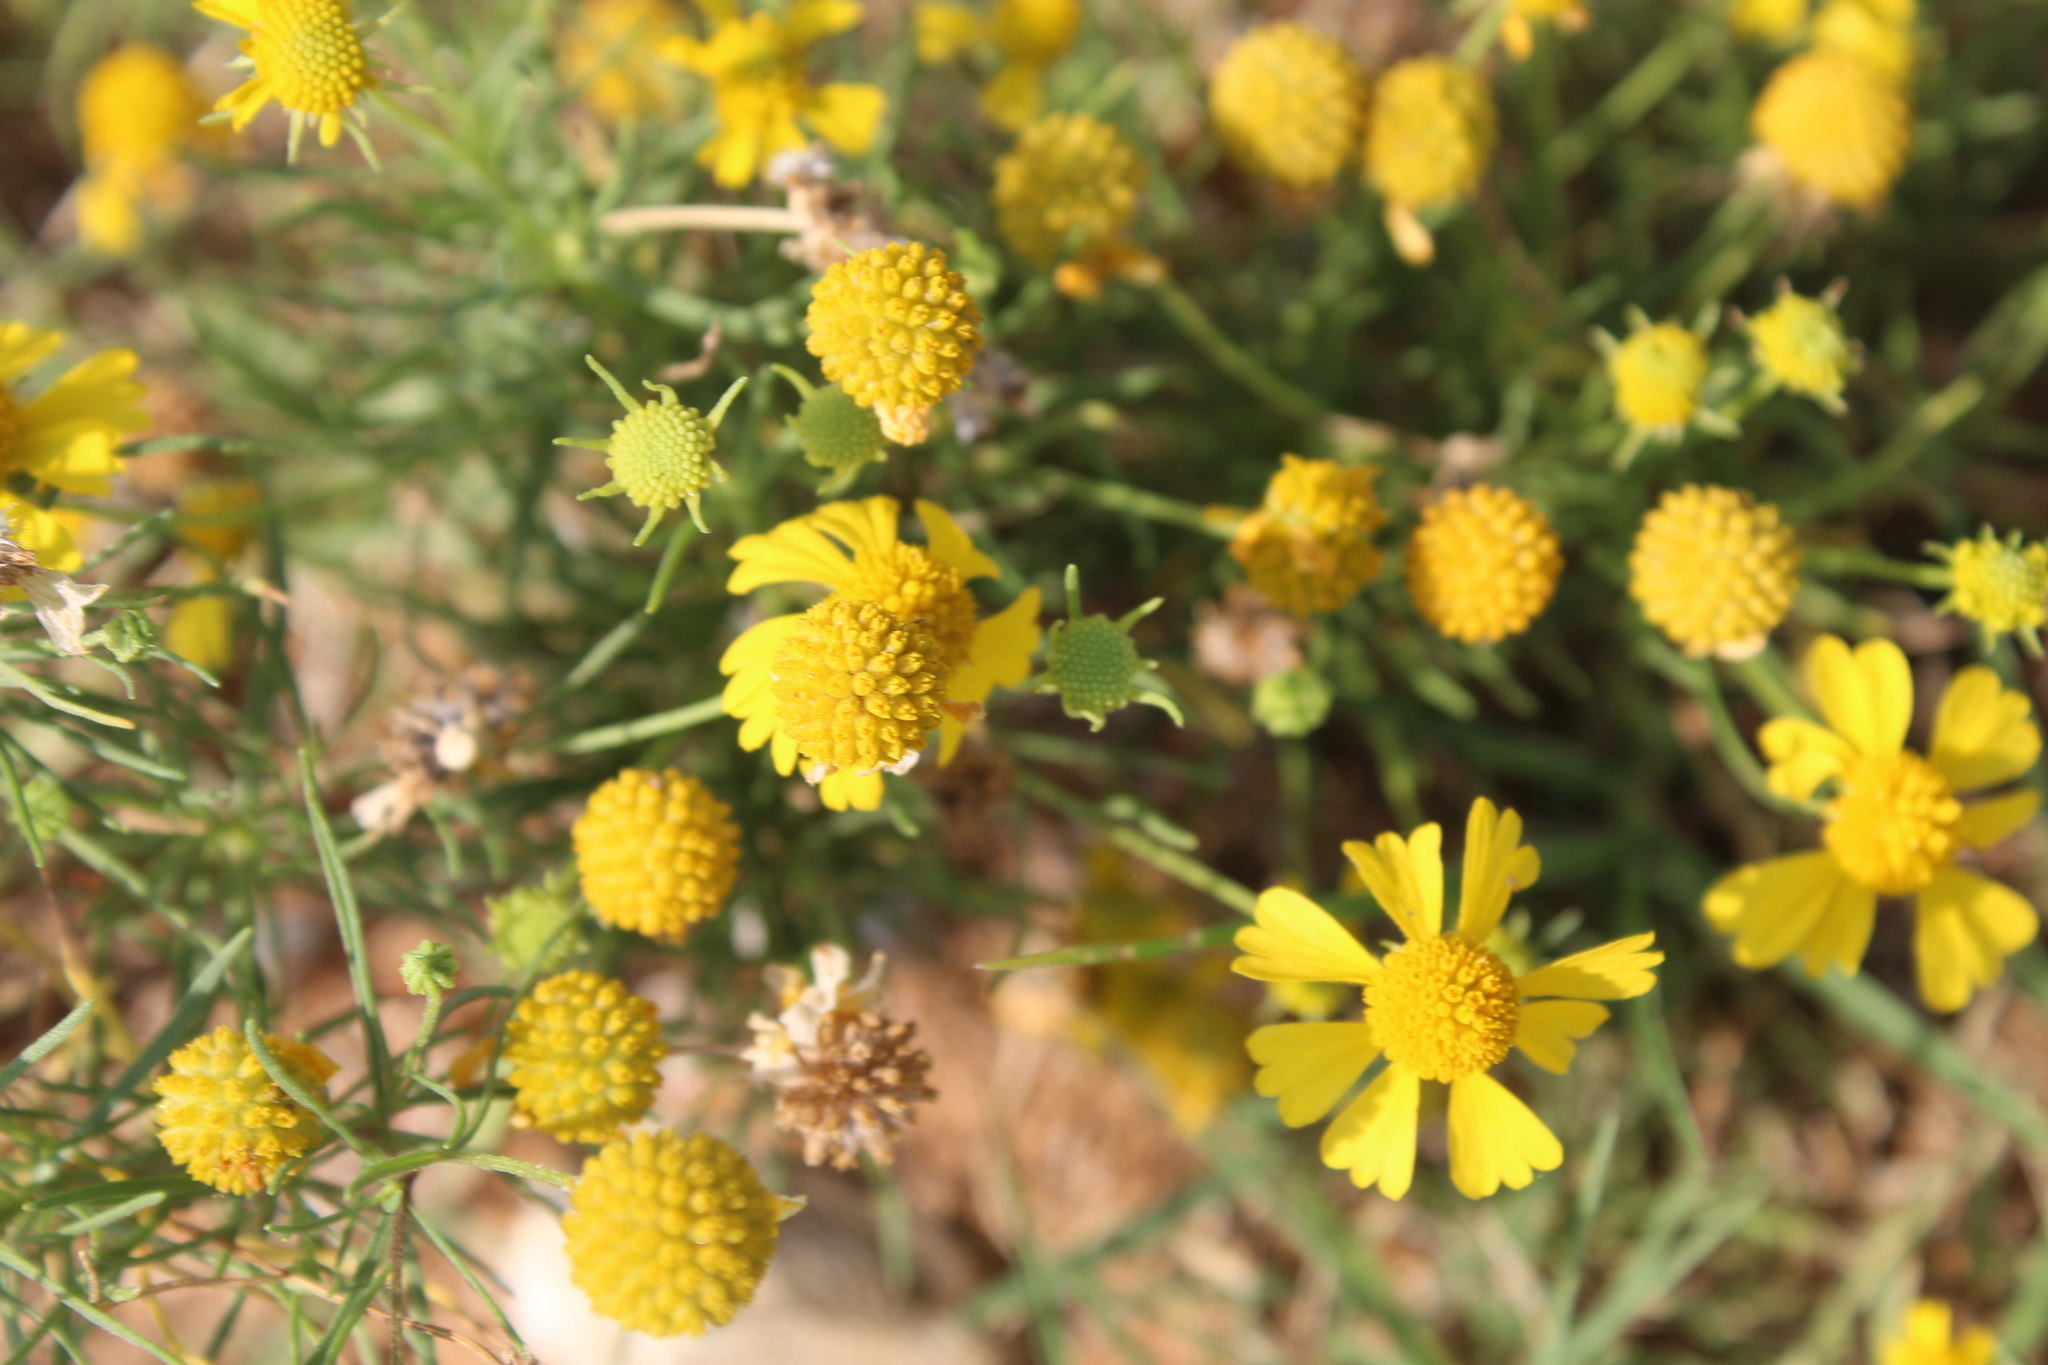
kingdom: Plantae
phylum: Tracheophyta
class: Magnoliopsida
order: Asterales
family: Asteraceae
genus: Helenium
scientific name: Helenium amarum
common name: Bitter sneezeweed
